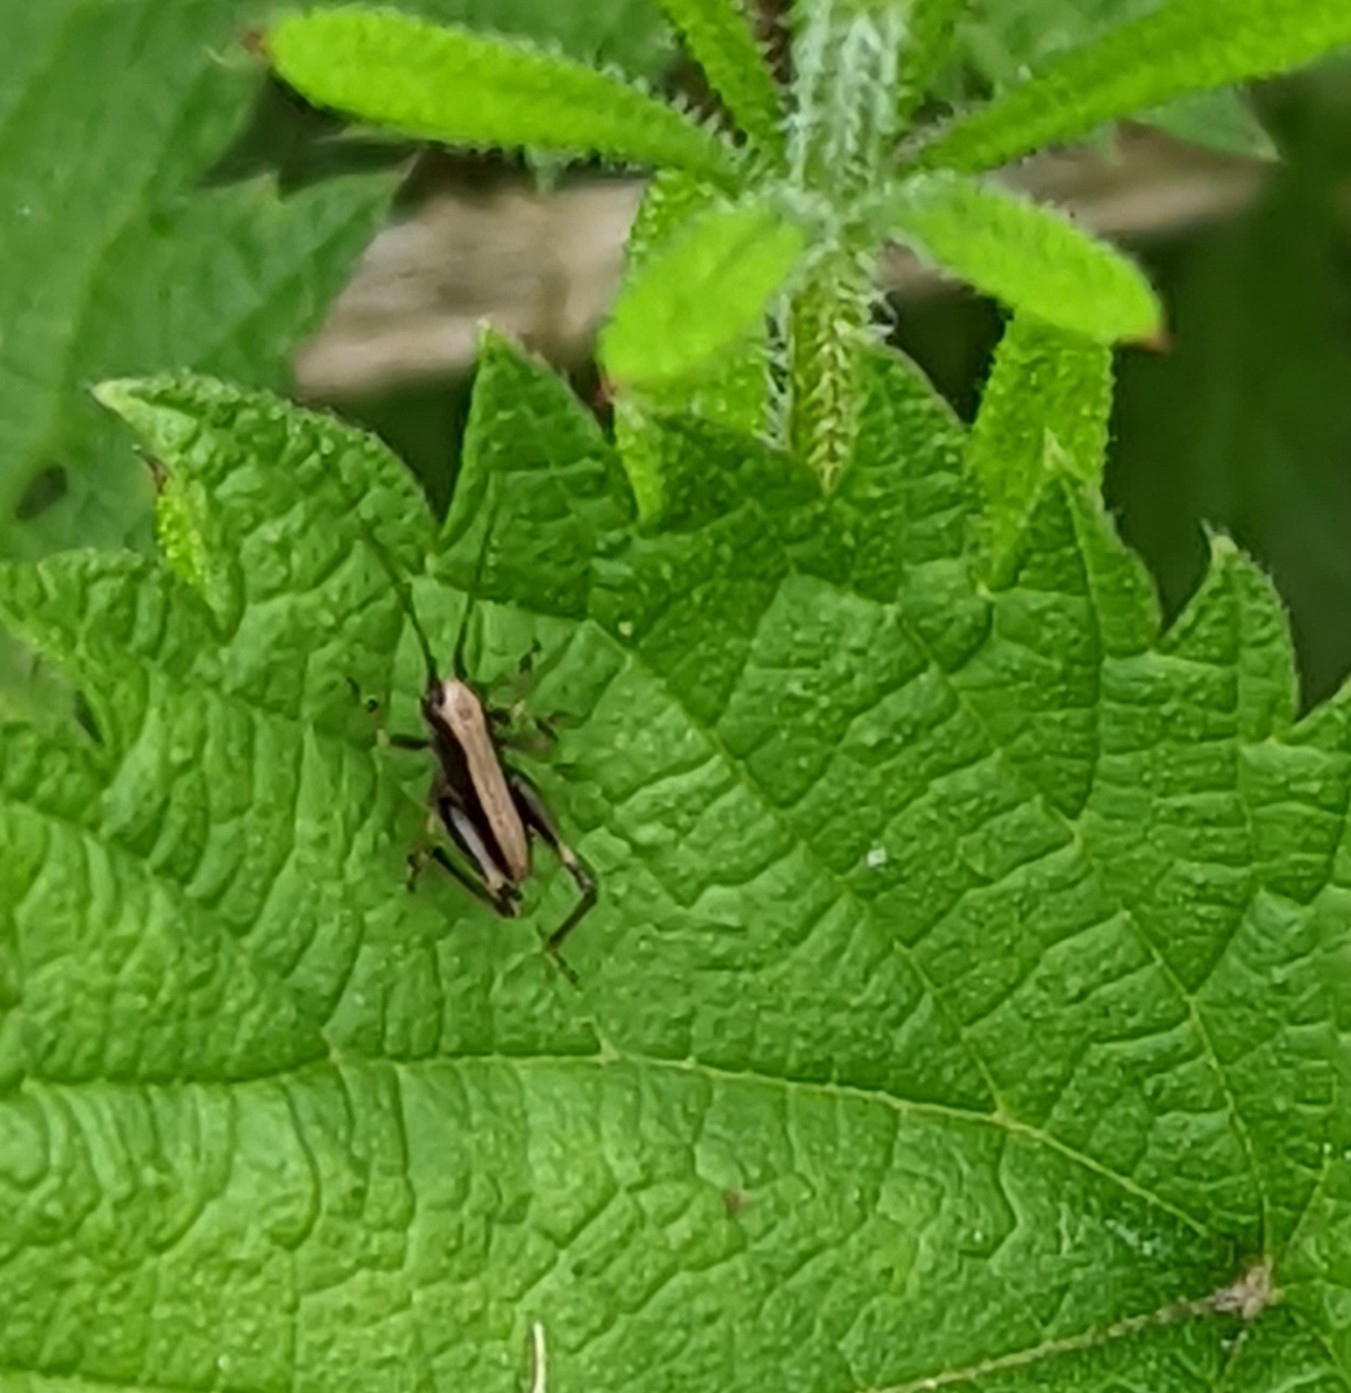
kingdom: Animalia
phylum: Arthropoda
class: Insecta
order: Orthoptera
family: Tettigoniidae
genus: Pholidoptera
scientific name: Pholidoptera griseoaptera
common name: Dark bush-cricket
